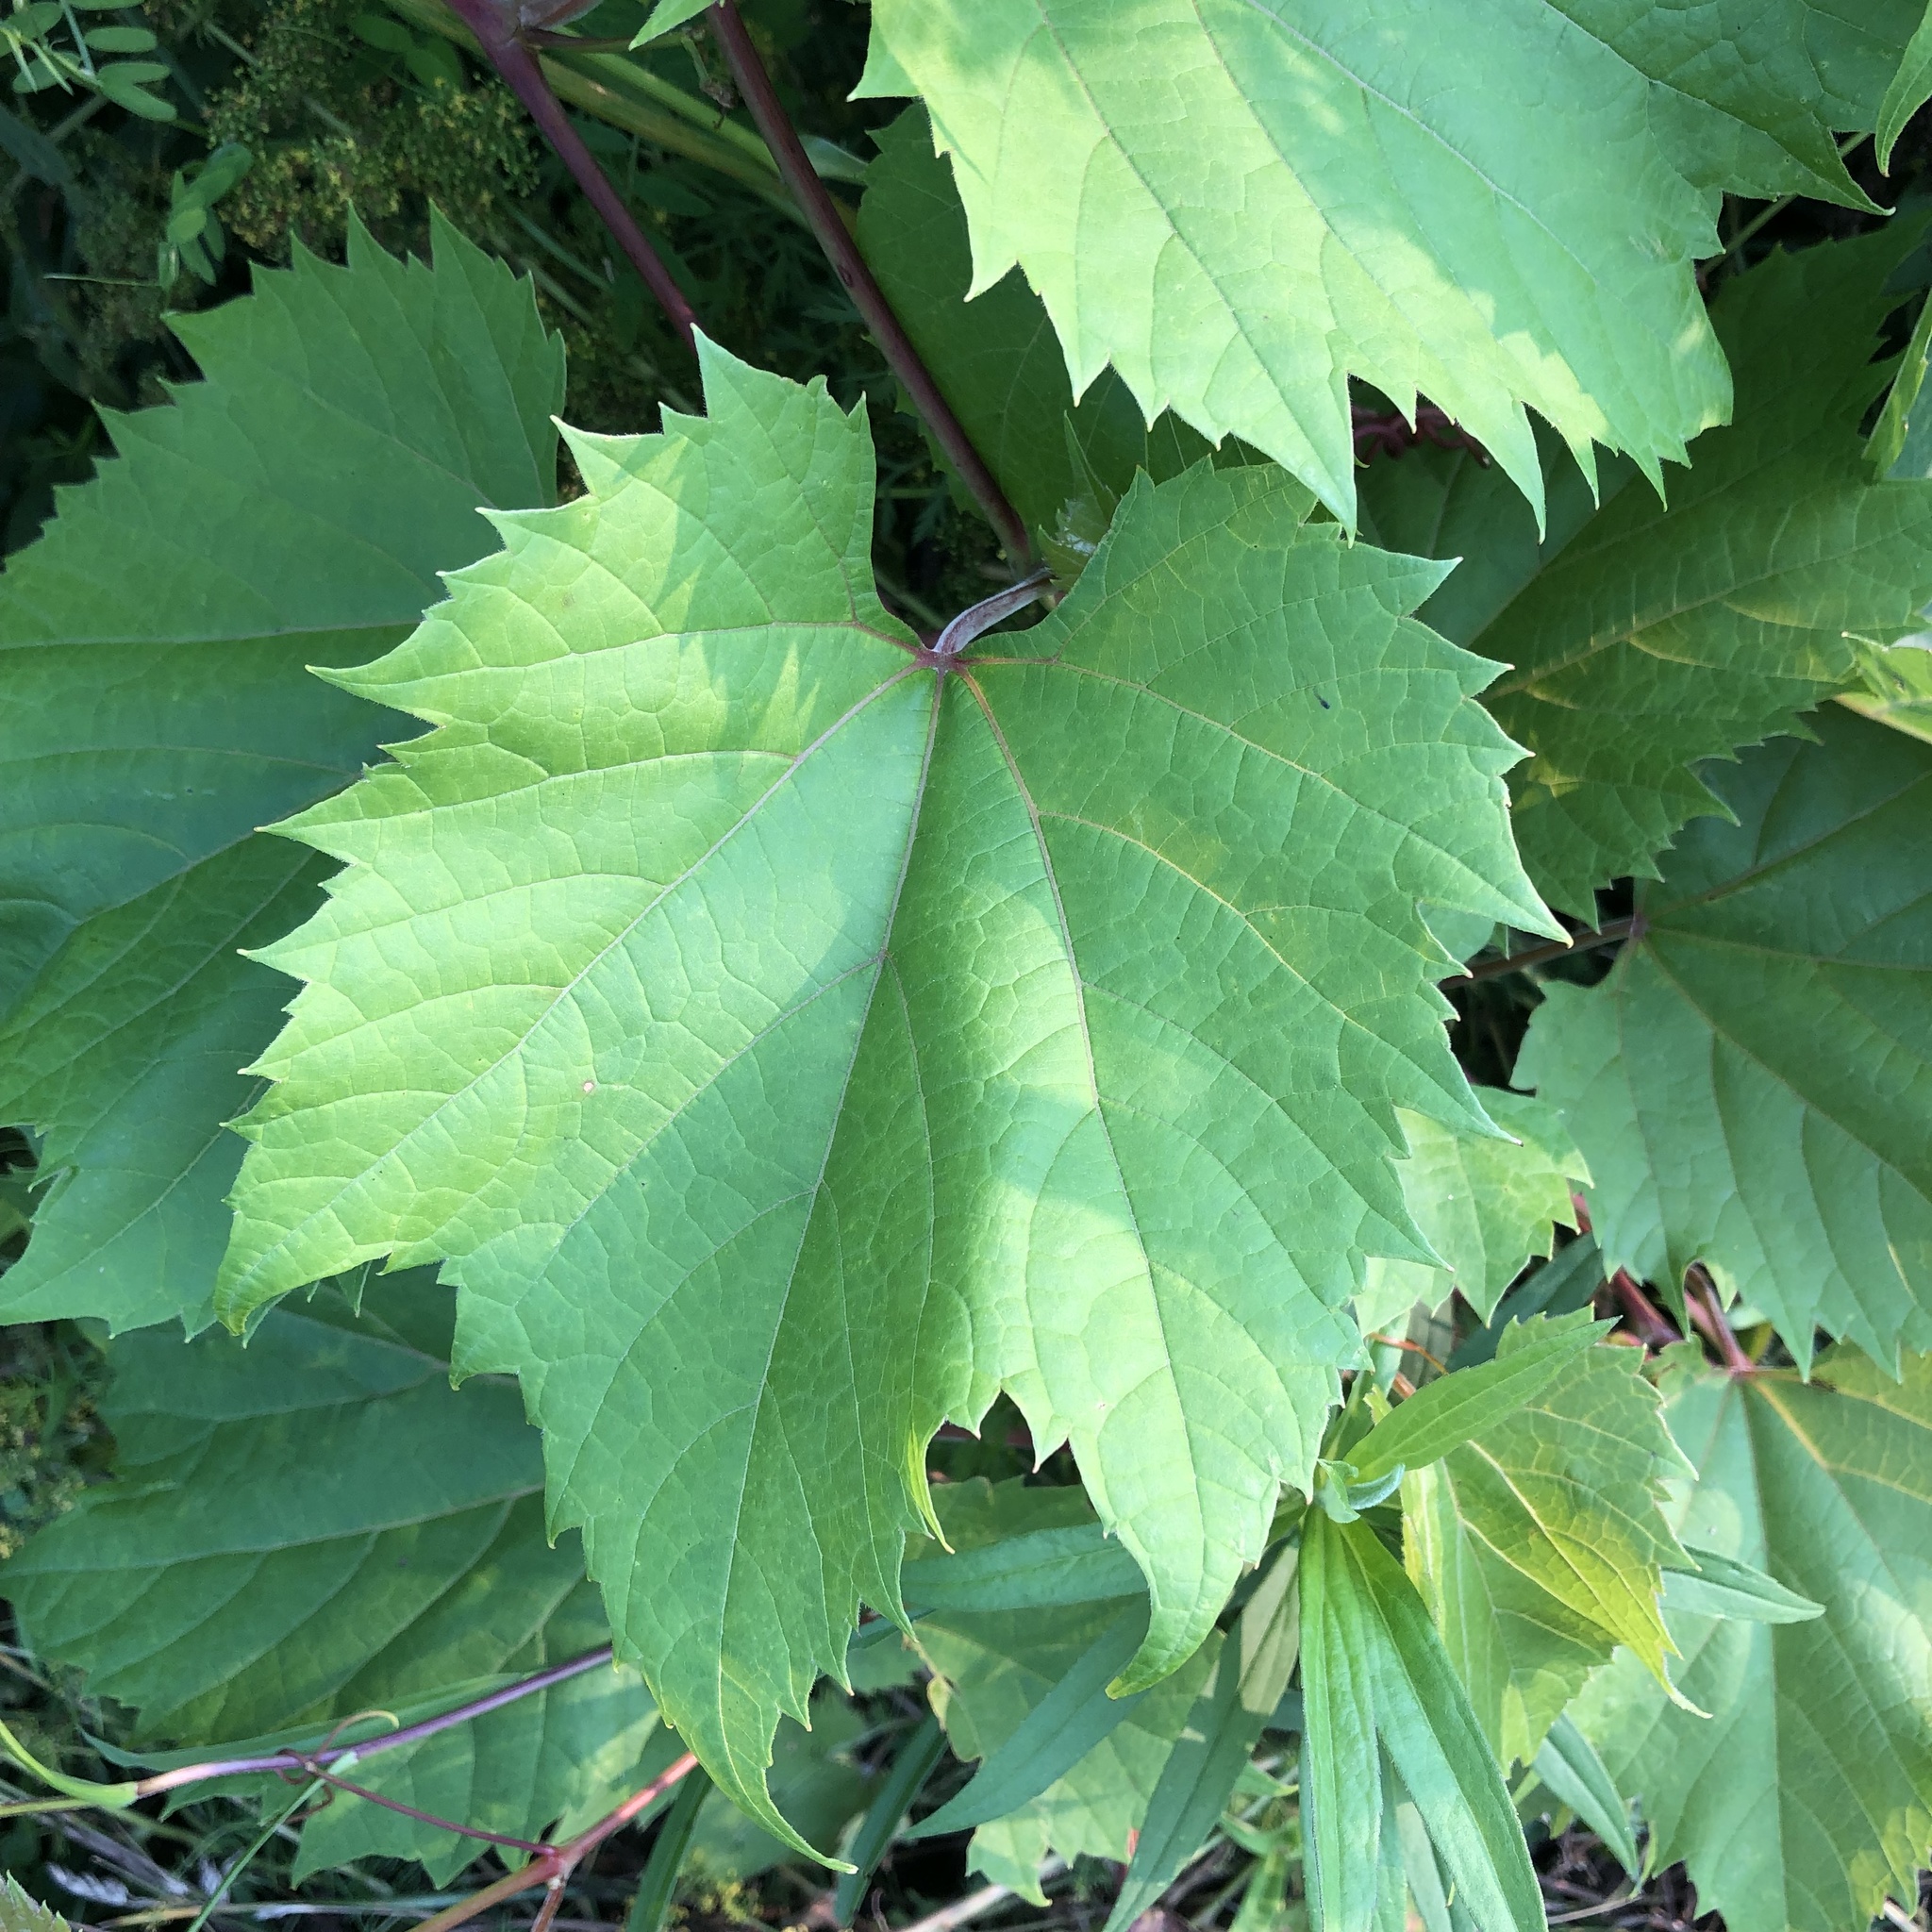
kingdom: Plantae
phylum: Tracheophyta
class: Magnoliopsida
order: Vitales
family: Vitaceae
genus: Vitis
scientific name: Vitis riparia
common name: Frost grape
